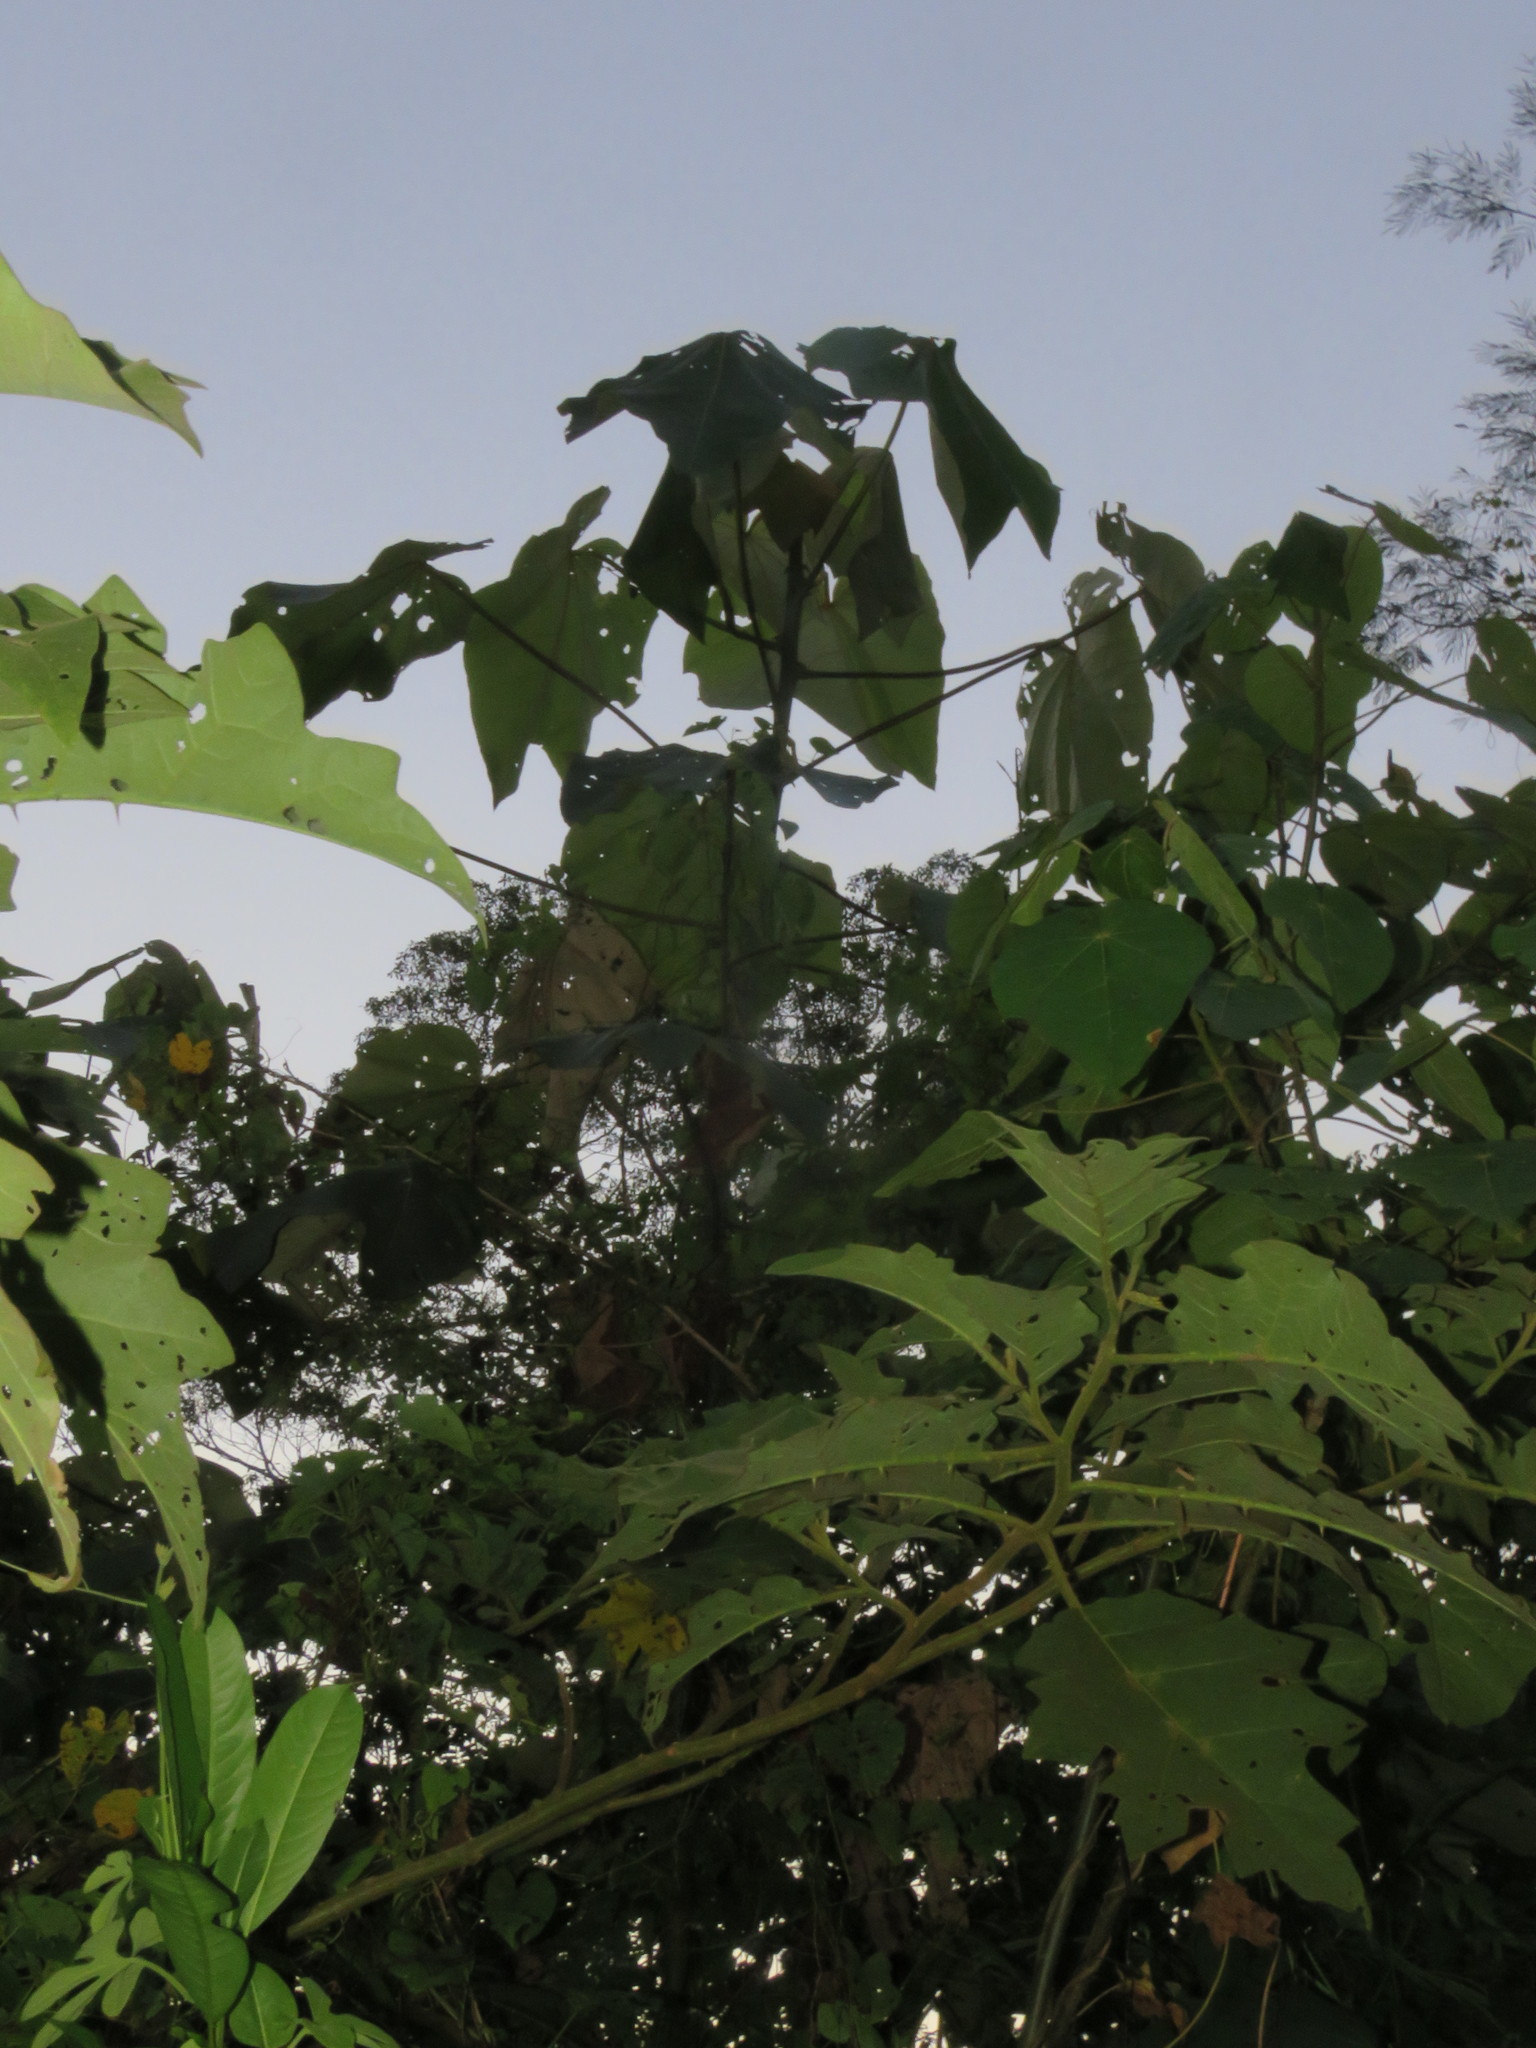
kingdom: Plantae
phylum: Tracheophyta
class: Magnoliopsida
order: Malvales
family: Malvaceae
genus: Ochroma
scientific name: Ochroma pyramidale
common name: Balsa
